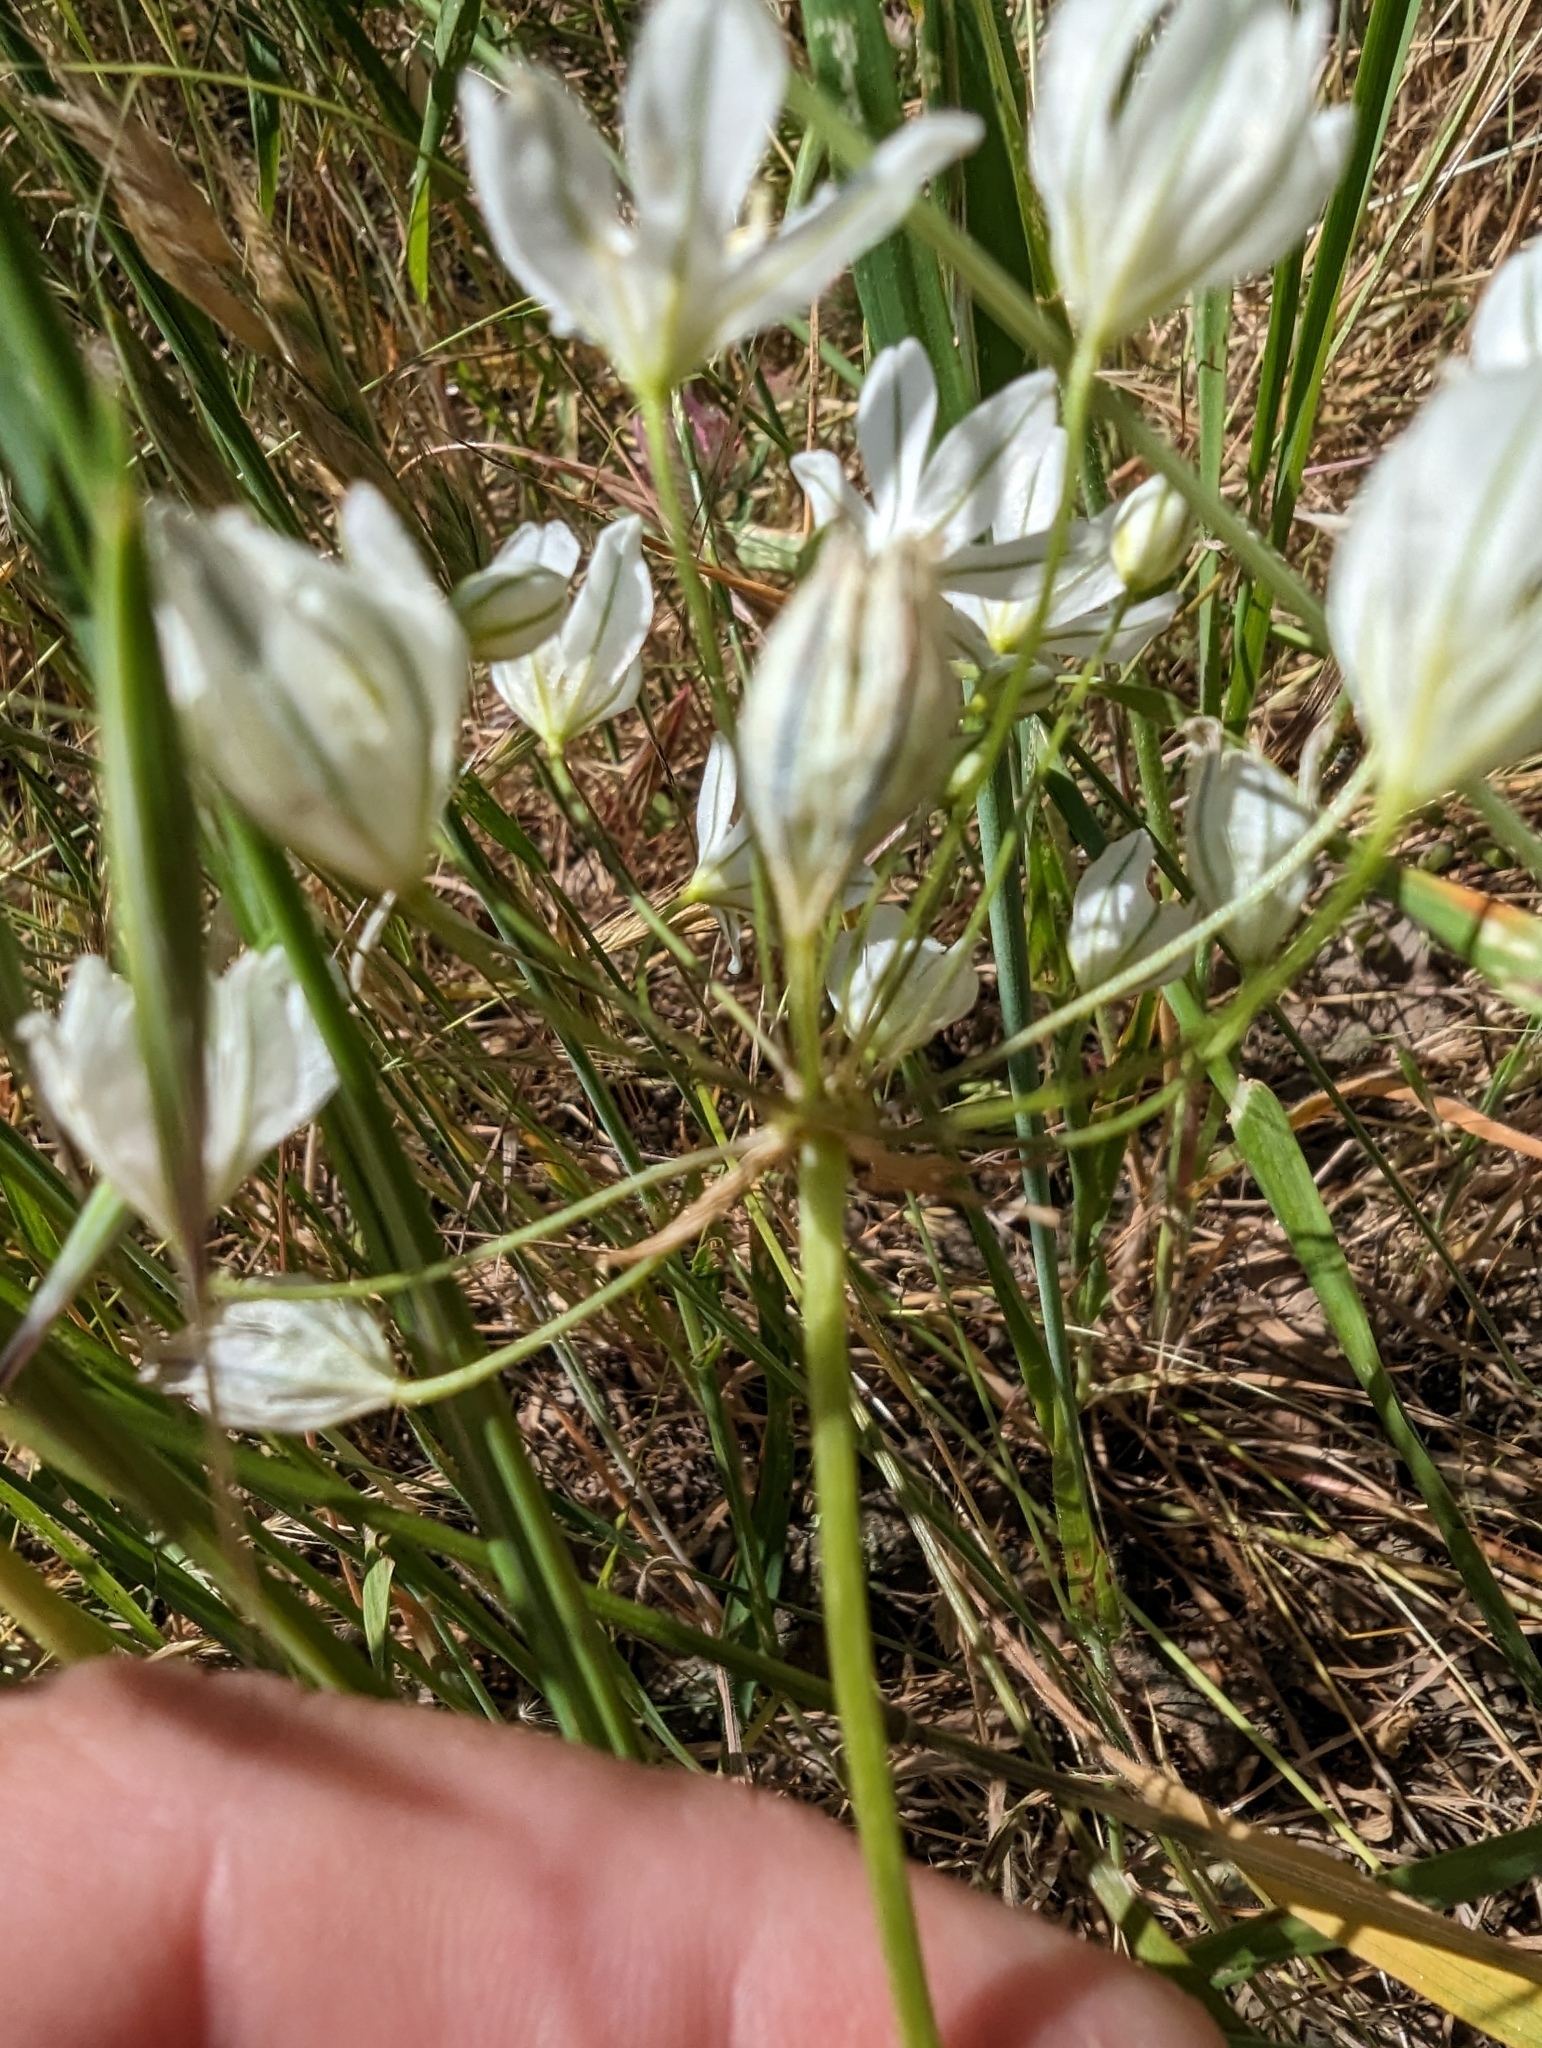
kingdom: Plantae
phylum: Tracheophyta
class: Liliopsida
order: Asparagales
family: Asparagaceae
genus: Triteleia
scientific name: Triteleia hyacinthina
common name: White brodiaea
